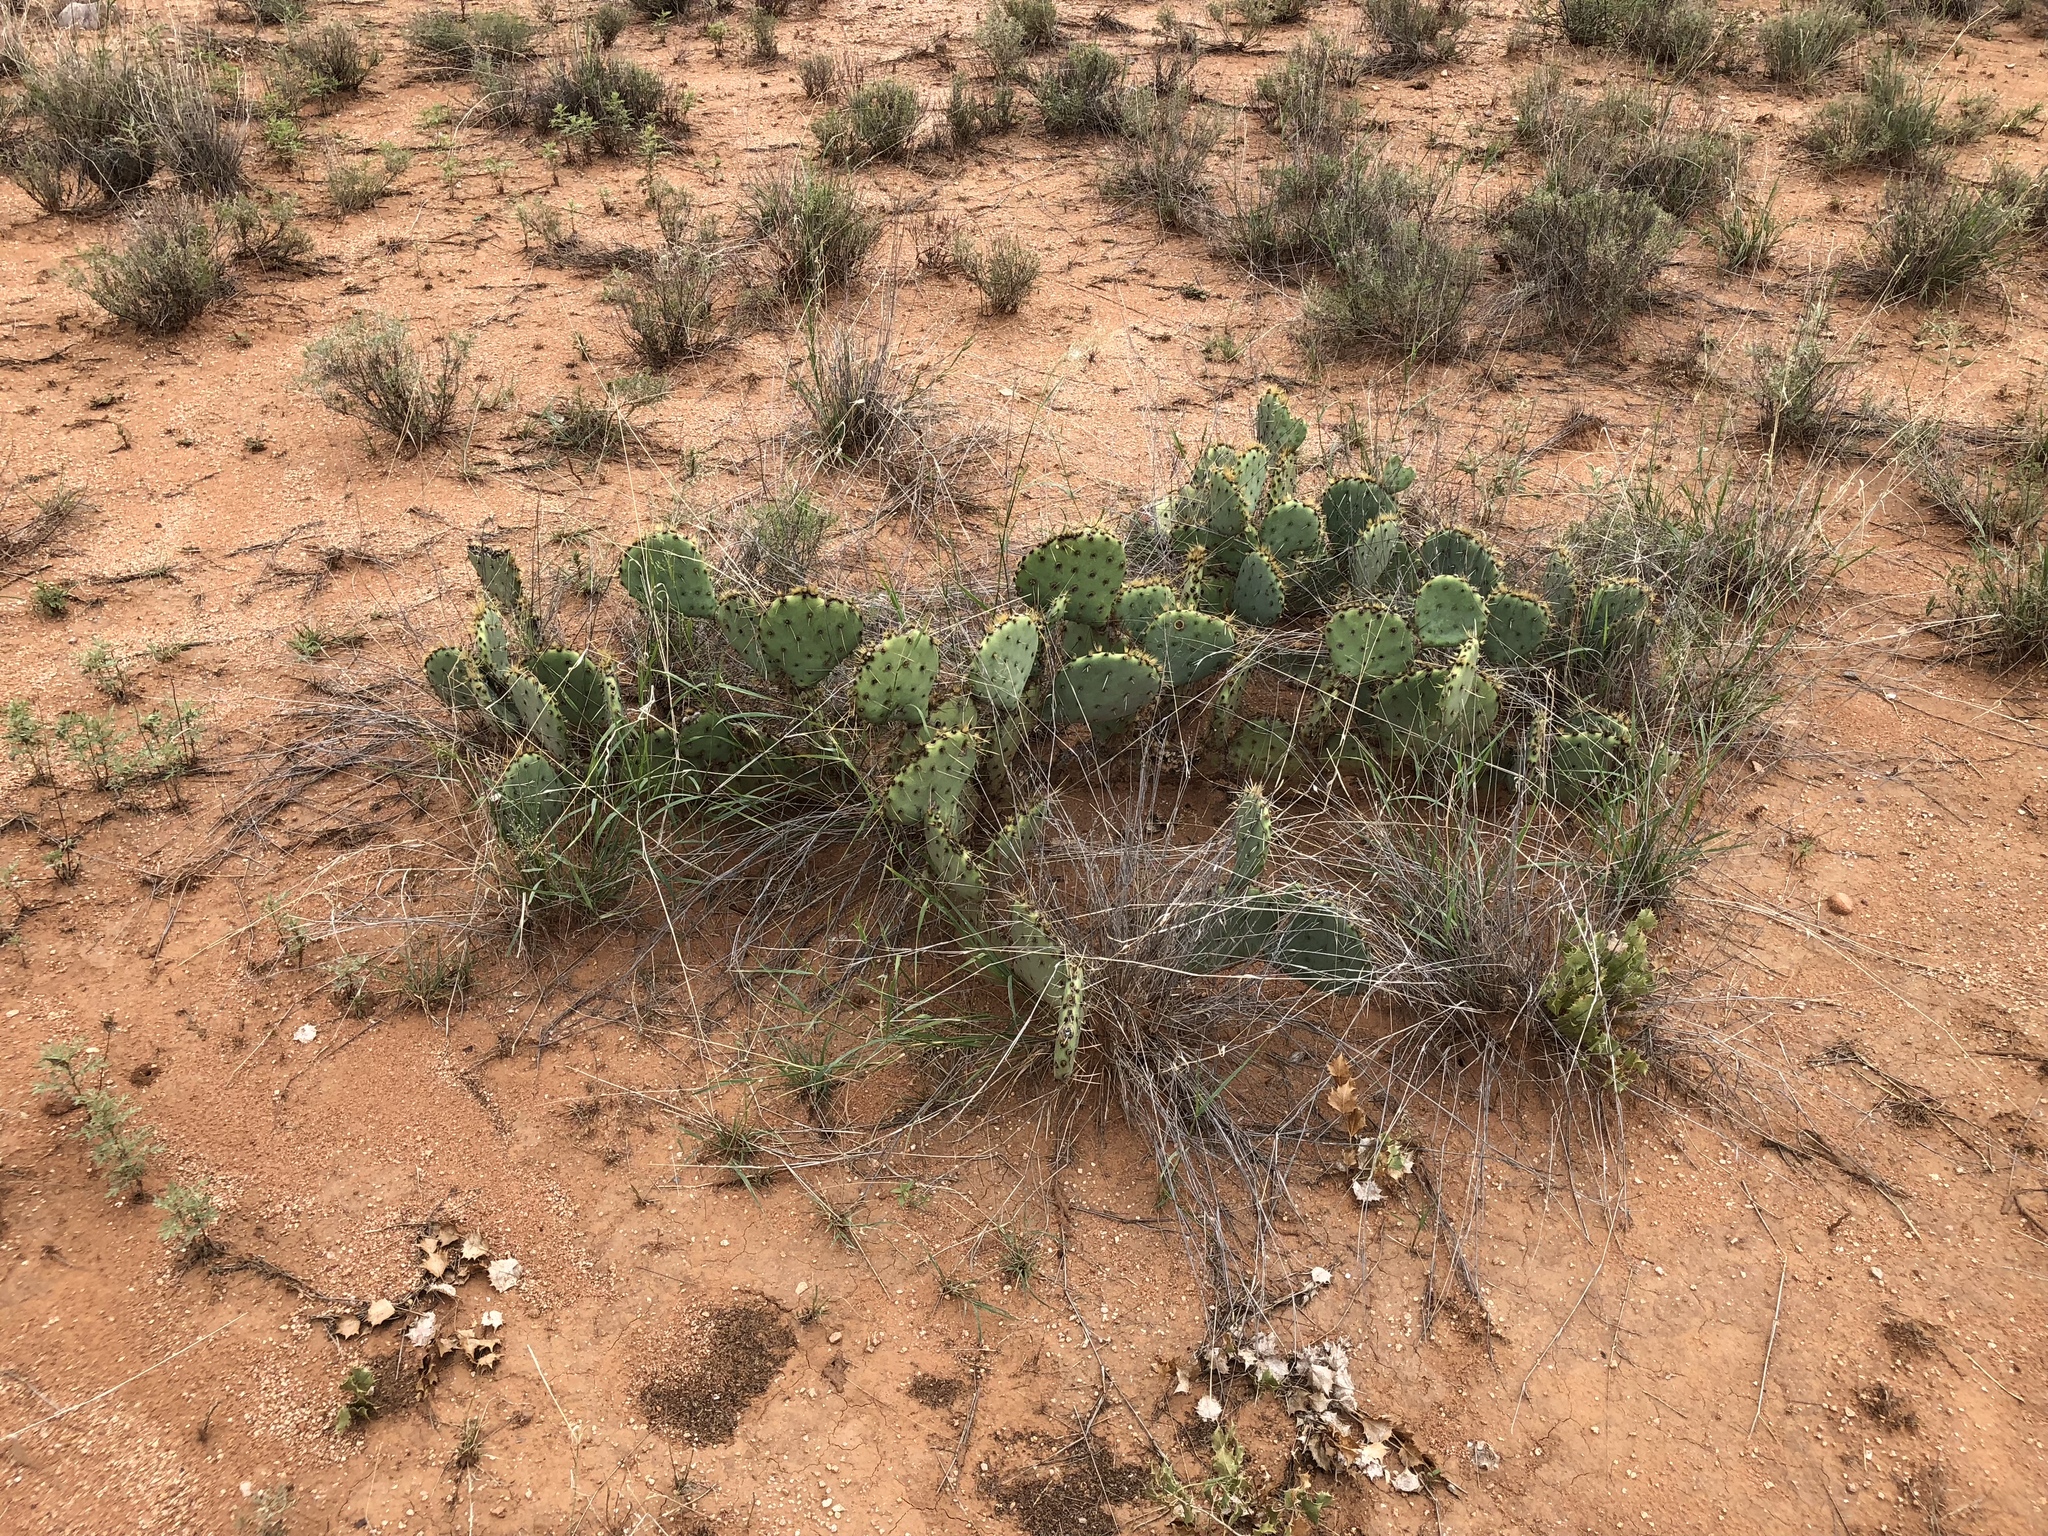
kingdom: Plantae
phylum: Tracheophyta
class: Magnoliopsida
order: Caryophyllales
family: Cactaceae
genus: Opuntia
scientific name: Opuntia engelmannii
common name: Cactus-apple
